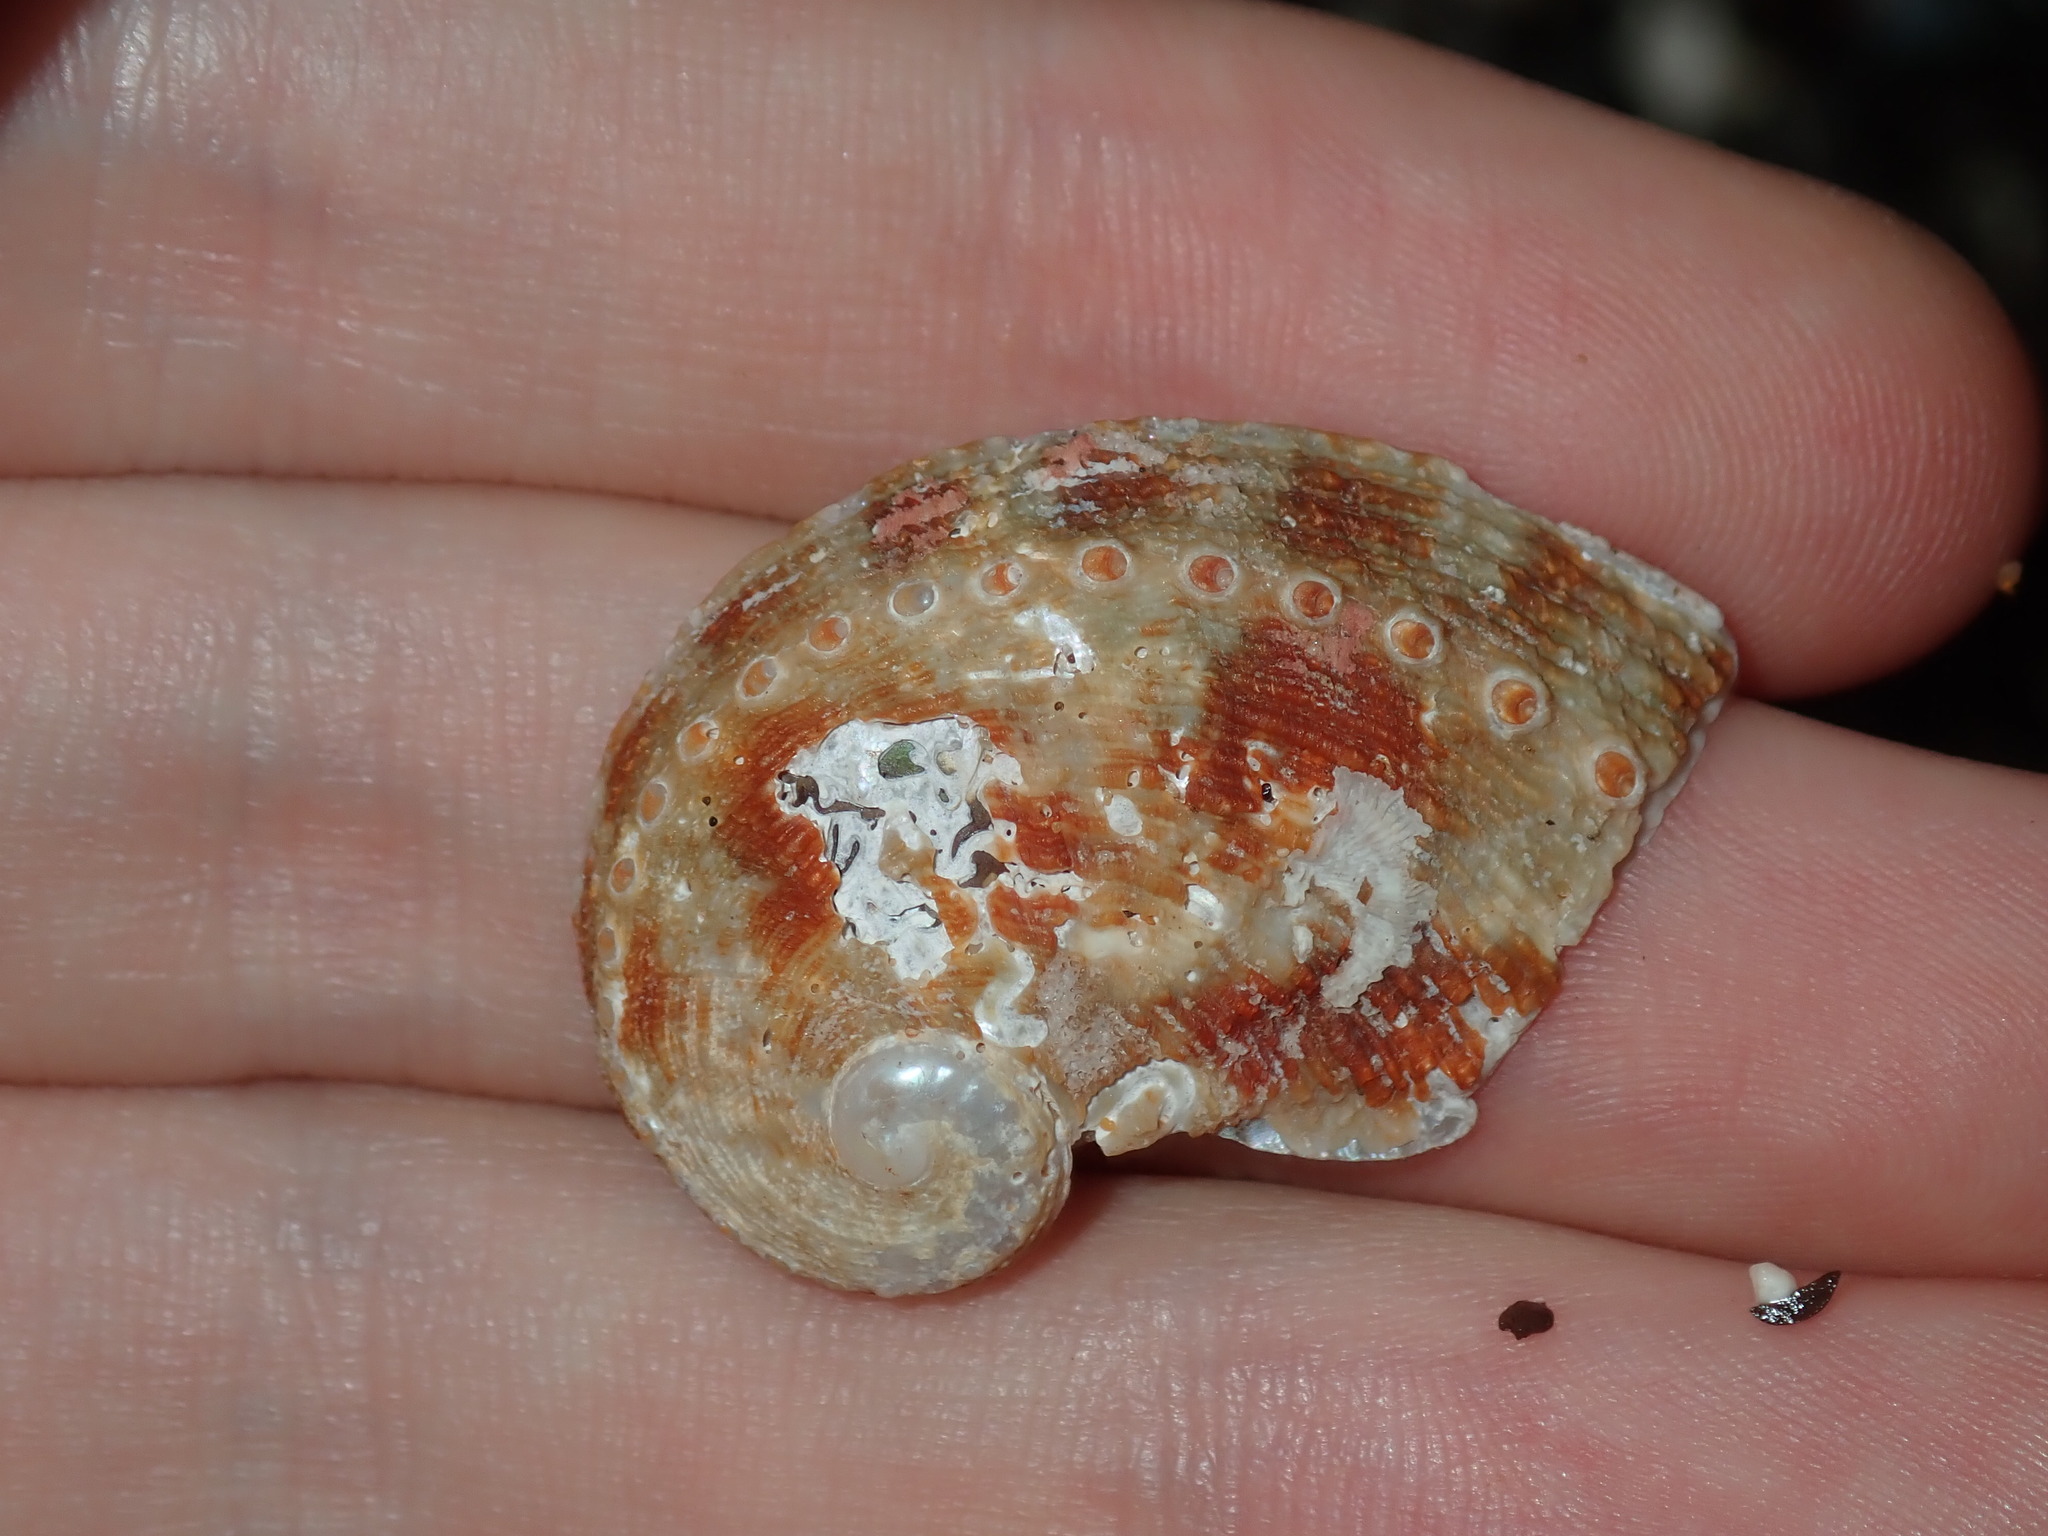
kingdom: Animalia
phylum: Mollusca
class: Gastropoda
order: Lepetellida
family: Haliotidae
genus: Haliotis
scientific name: Haliotis rubra
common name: Blacklip abalone
